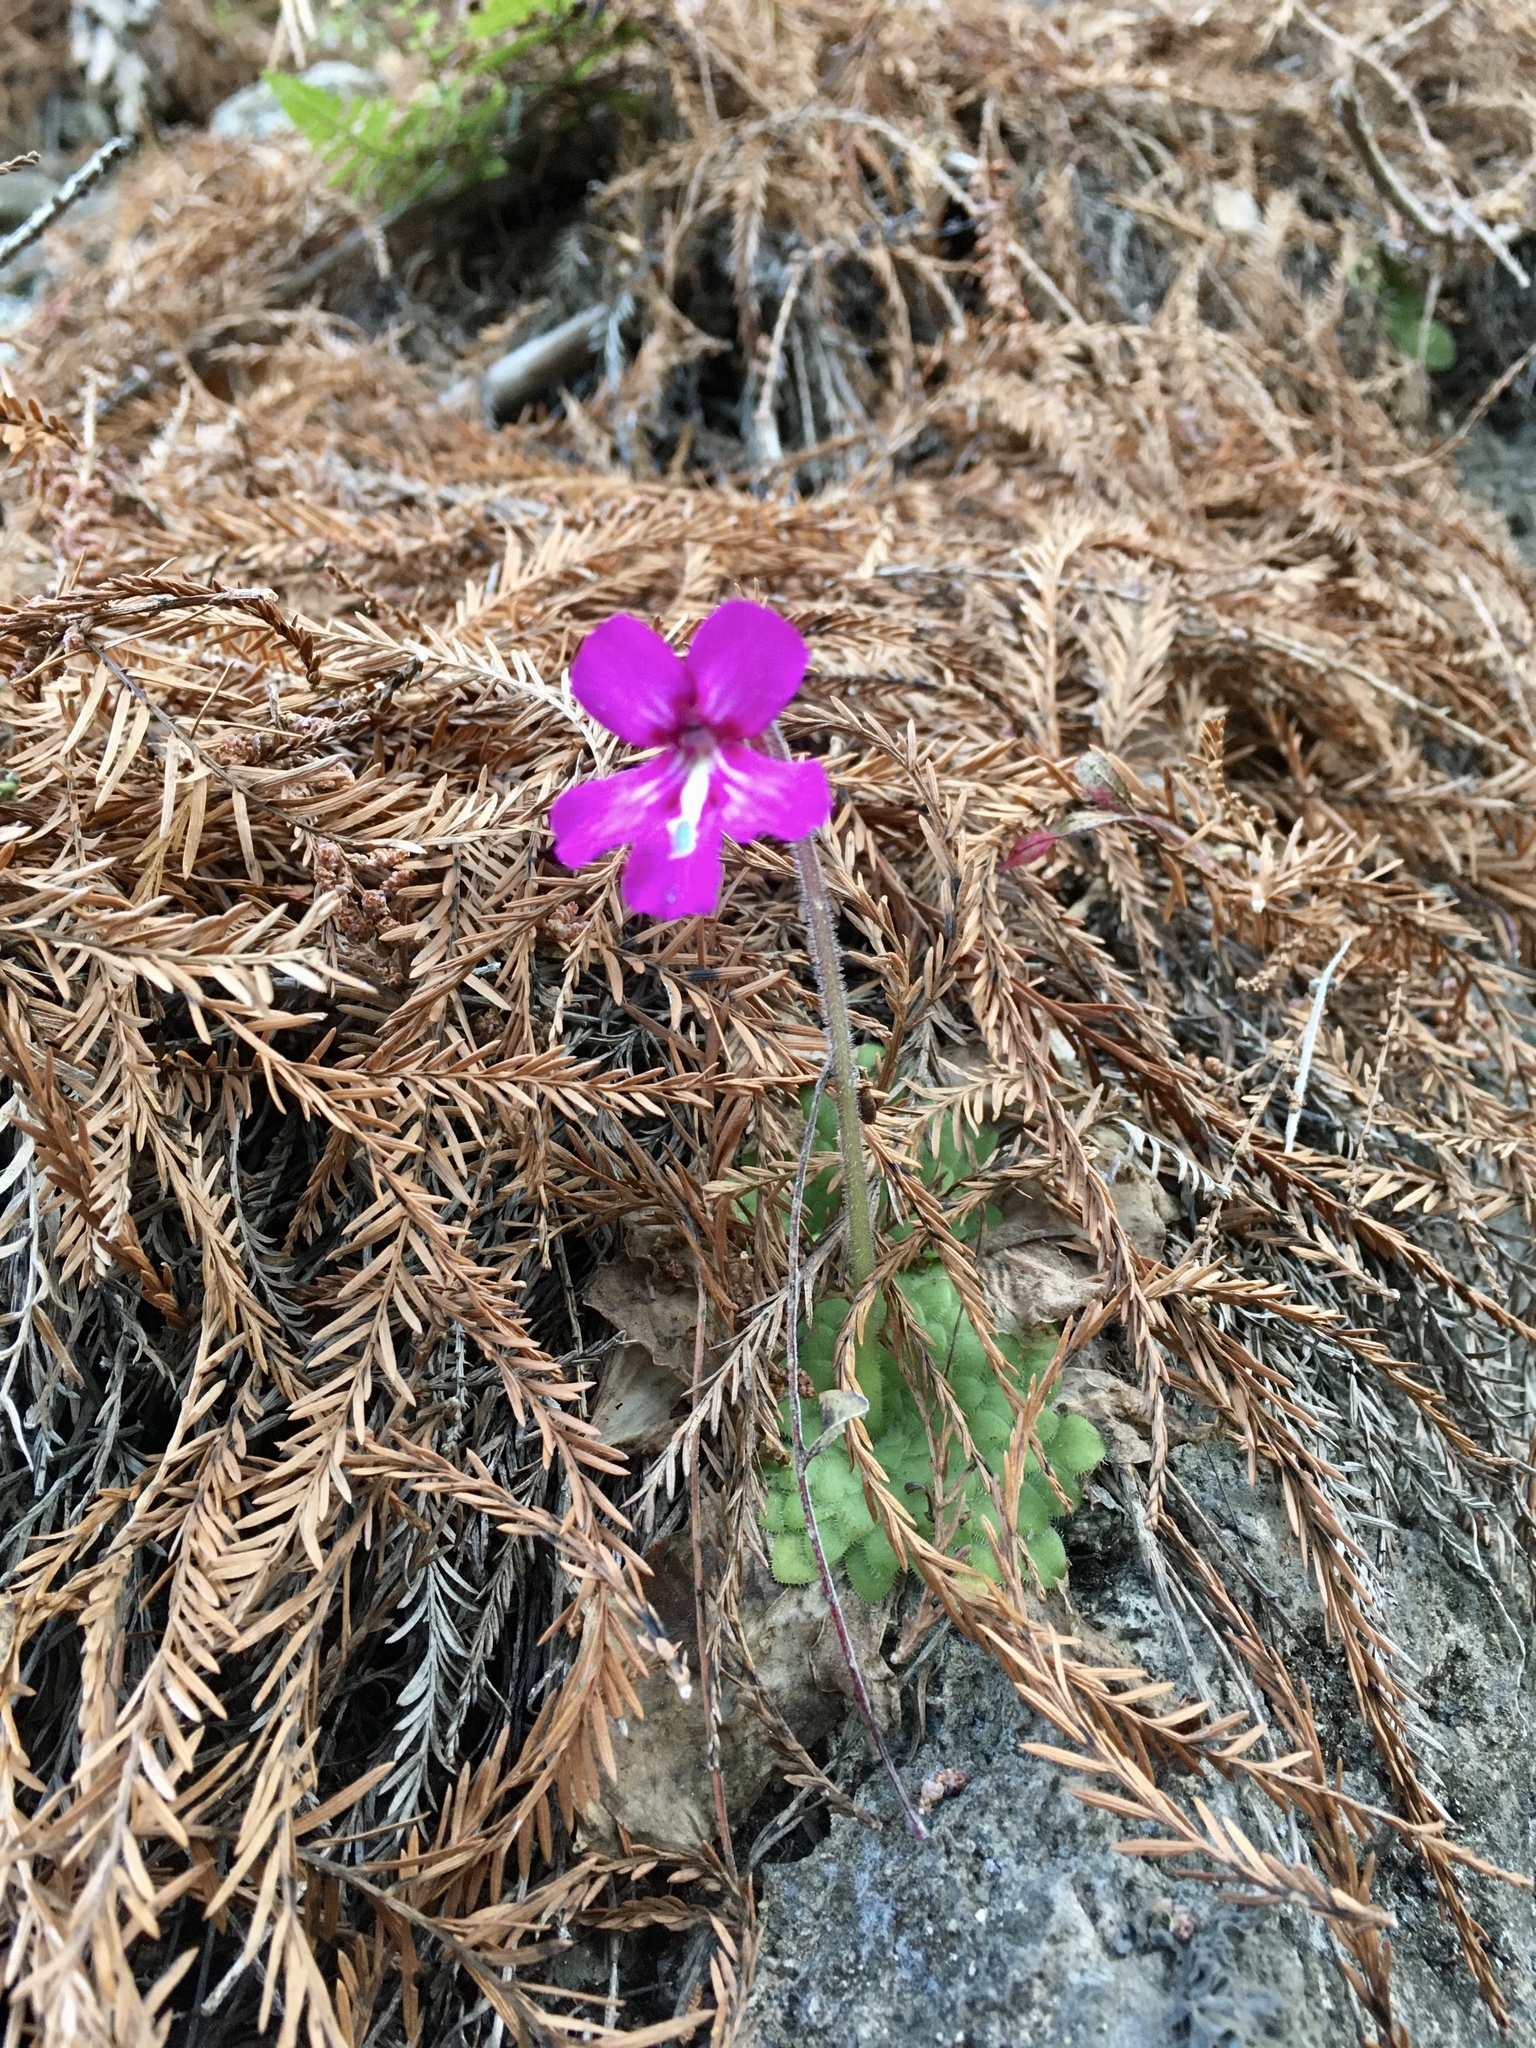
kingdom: Plantae
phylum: Tracheophyta
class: Magnoliopsida
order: Lamiales
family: Lentibulariaceae
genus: Pinguicula
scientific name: Pinguicula moranensis
